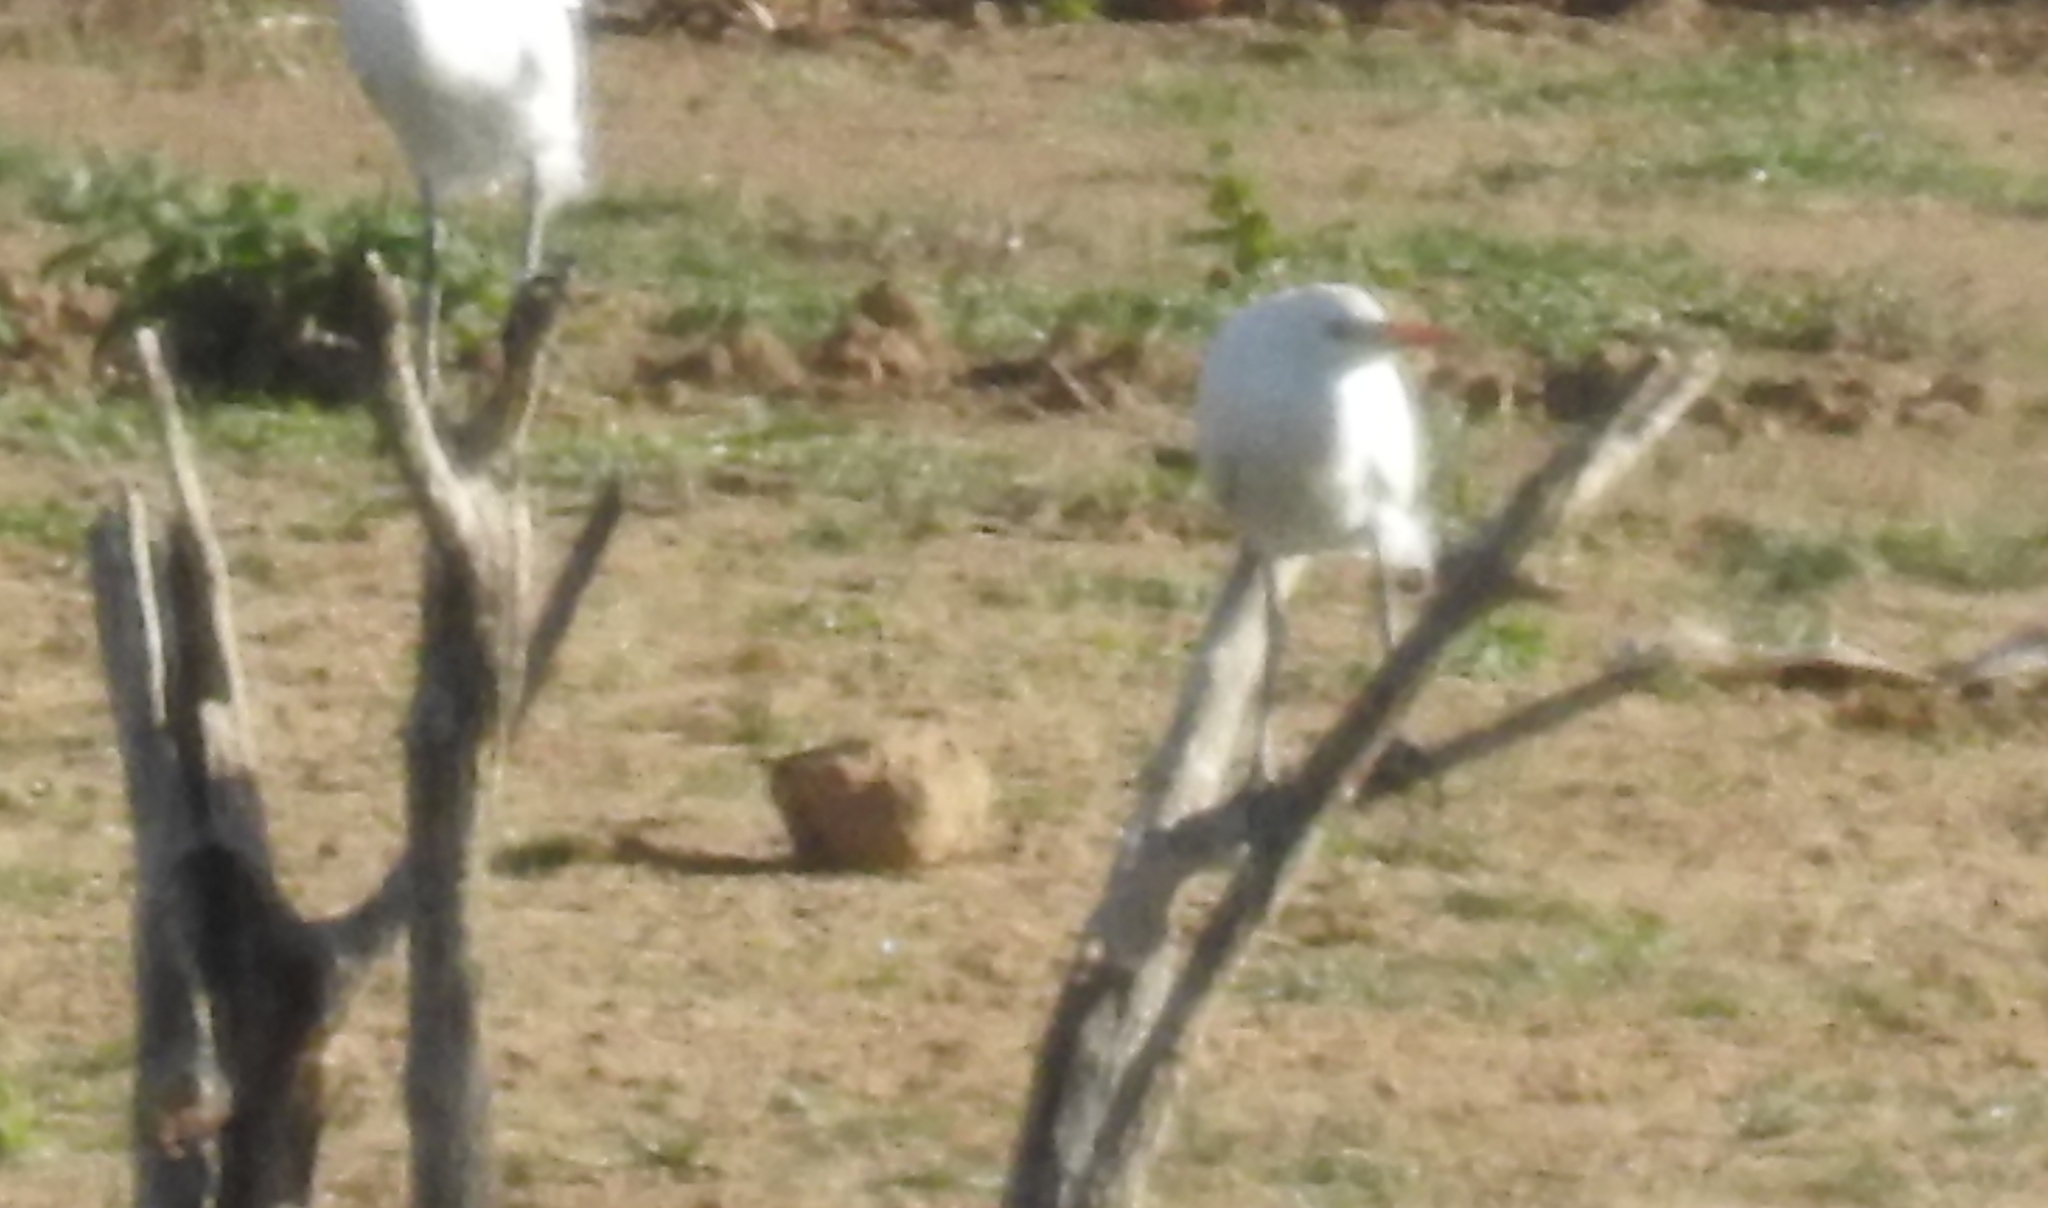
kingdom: Animalia
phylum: Chordata
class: Aves
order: Pelecaniformes
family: Ardeidae
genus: Bubulcus
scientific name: Bubulcus ibis
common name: Cattle egret
